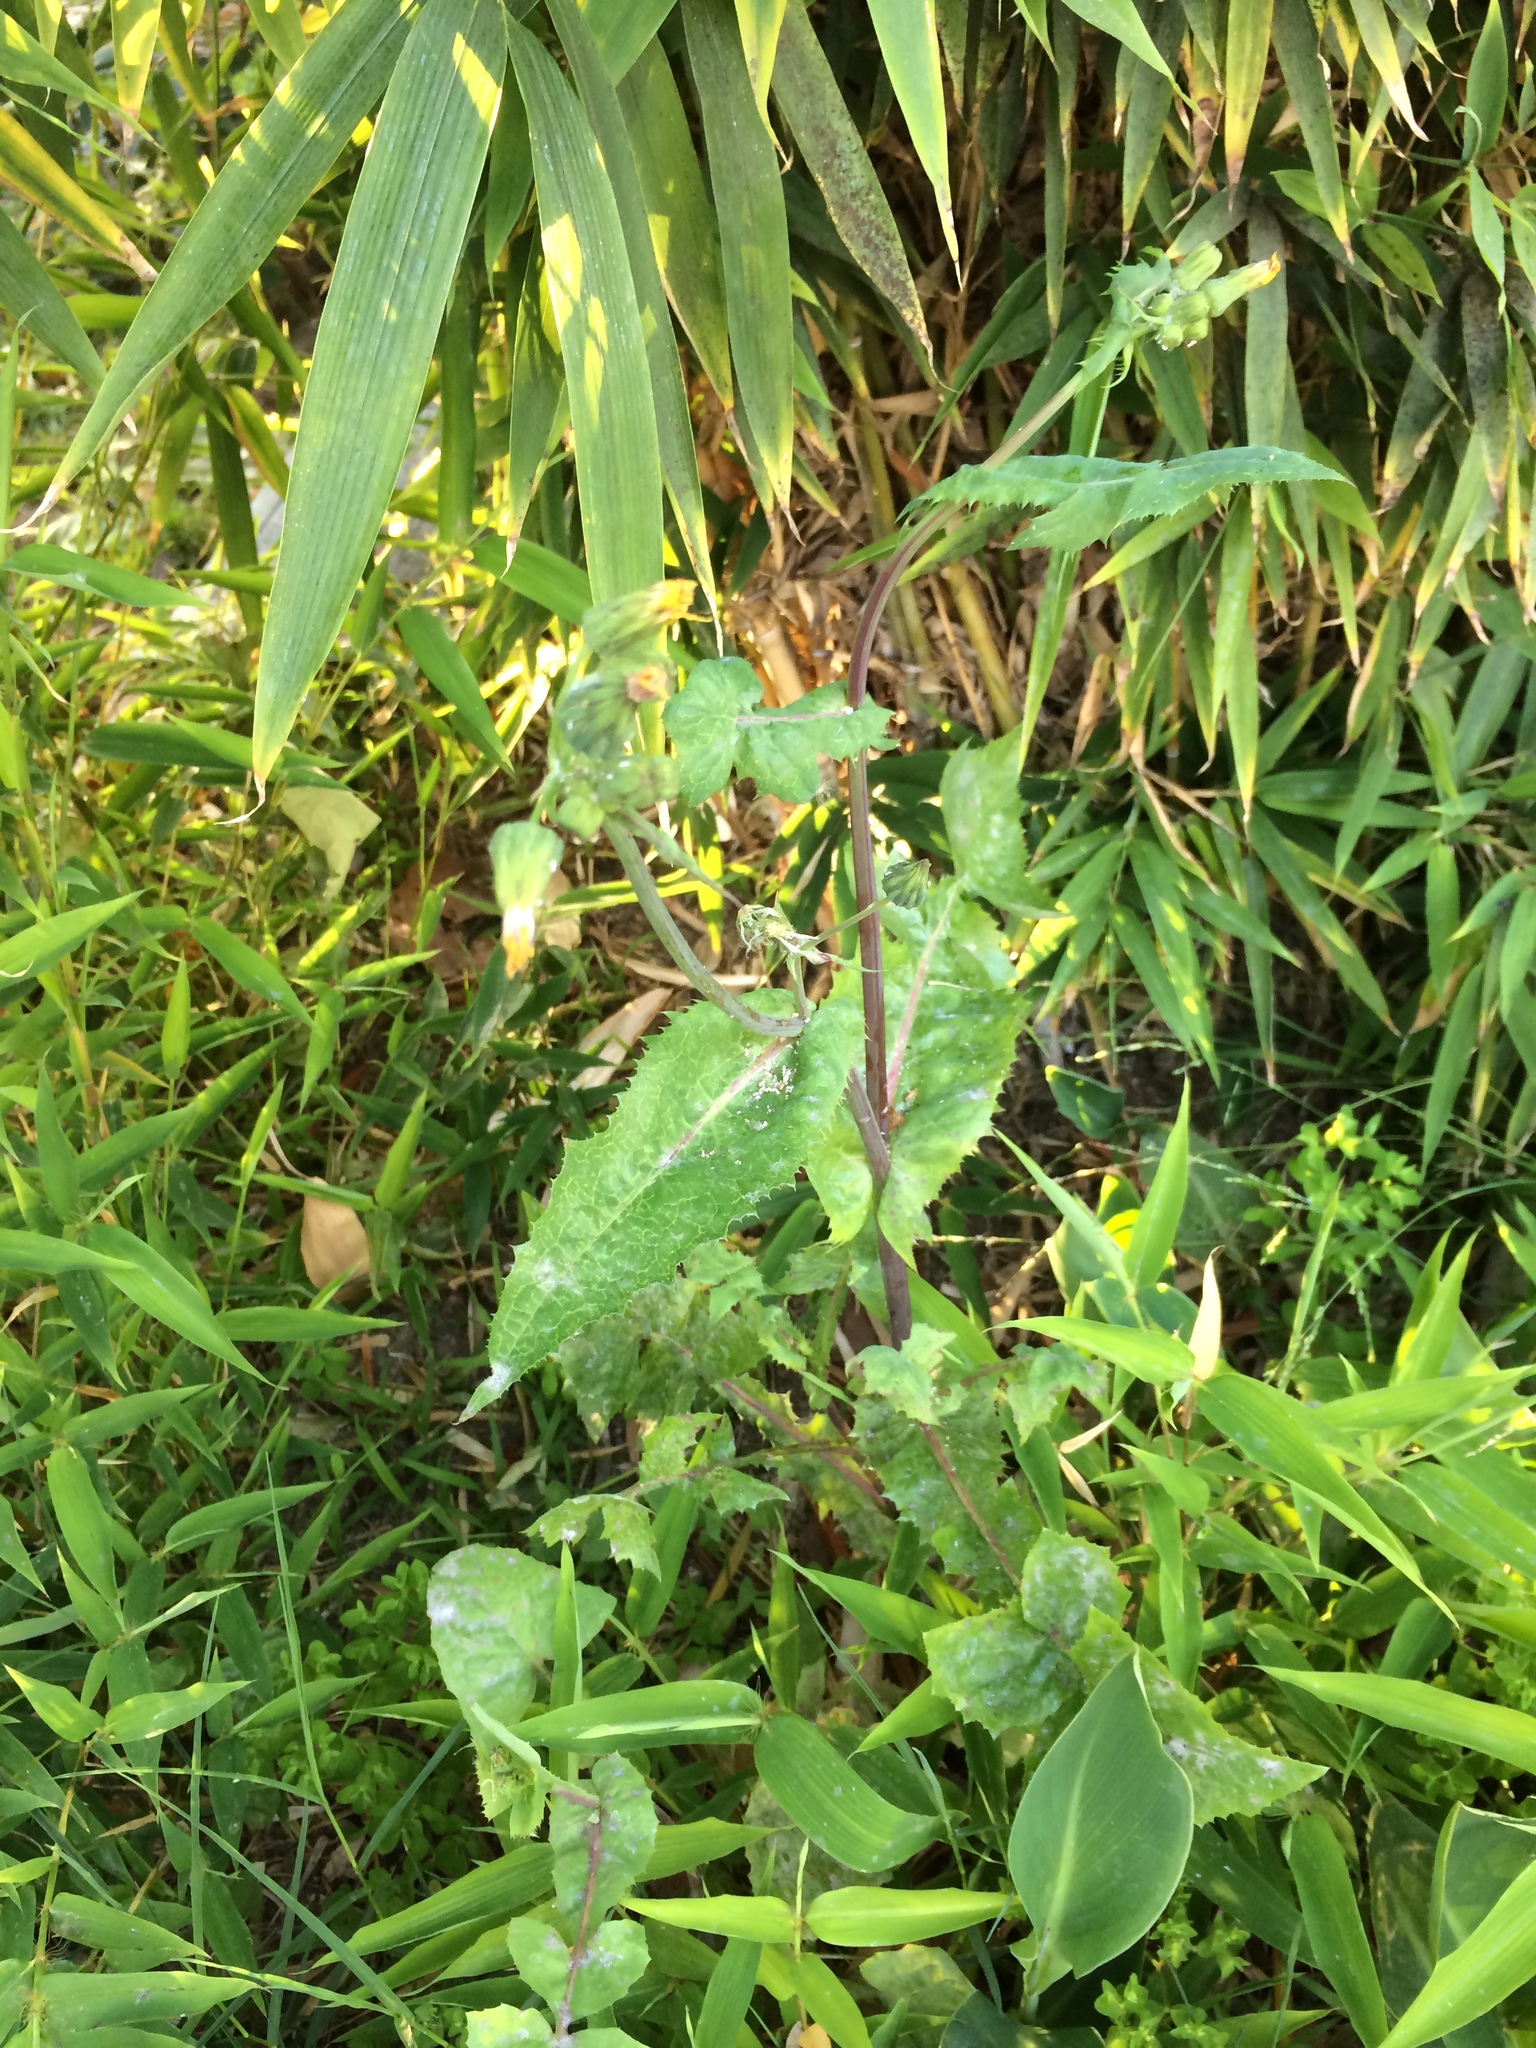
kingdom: Plantae
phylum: Tracheophyta
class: Magnoliopsida
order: Asterales
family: Asteraceae
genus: Sonchus
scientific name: Sonchus oleraceus
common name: Common sowthistle
